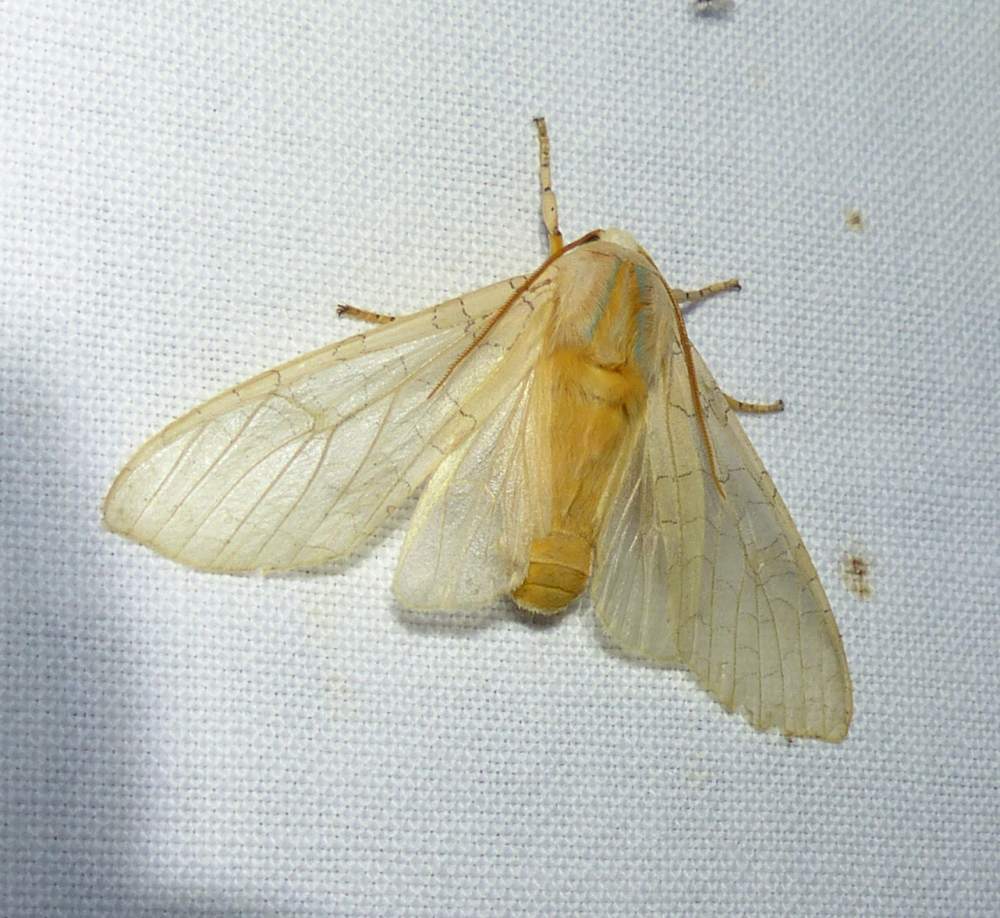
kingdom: Animalia
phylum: Arthropoda
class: Insecta
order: Lepidoptera
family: Erebidae
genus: Halysidota
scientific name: Halysidota tessellaris
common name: Banded tussock moth
